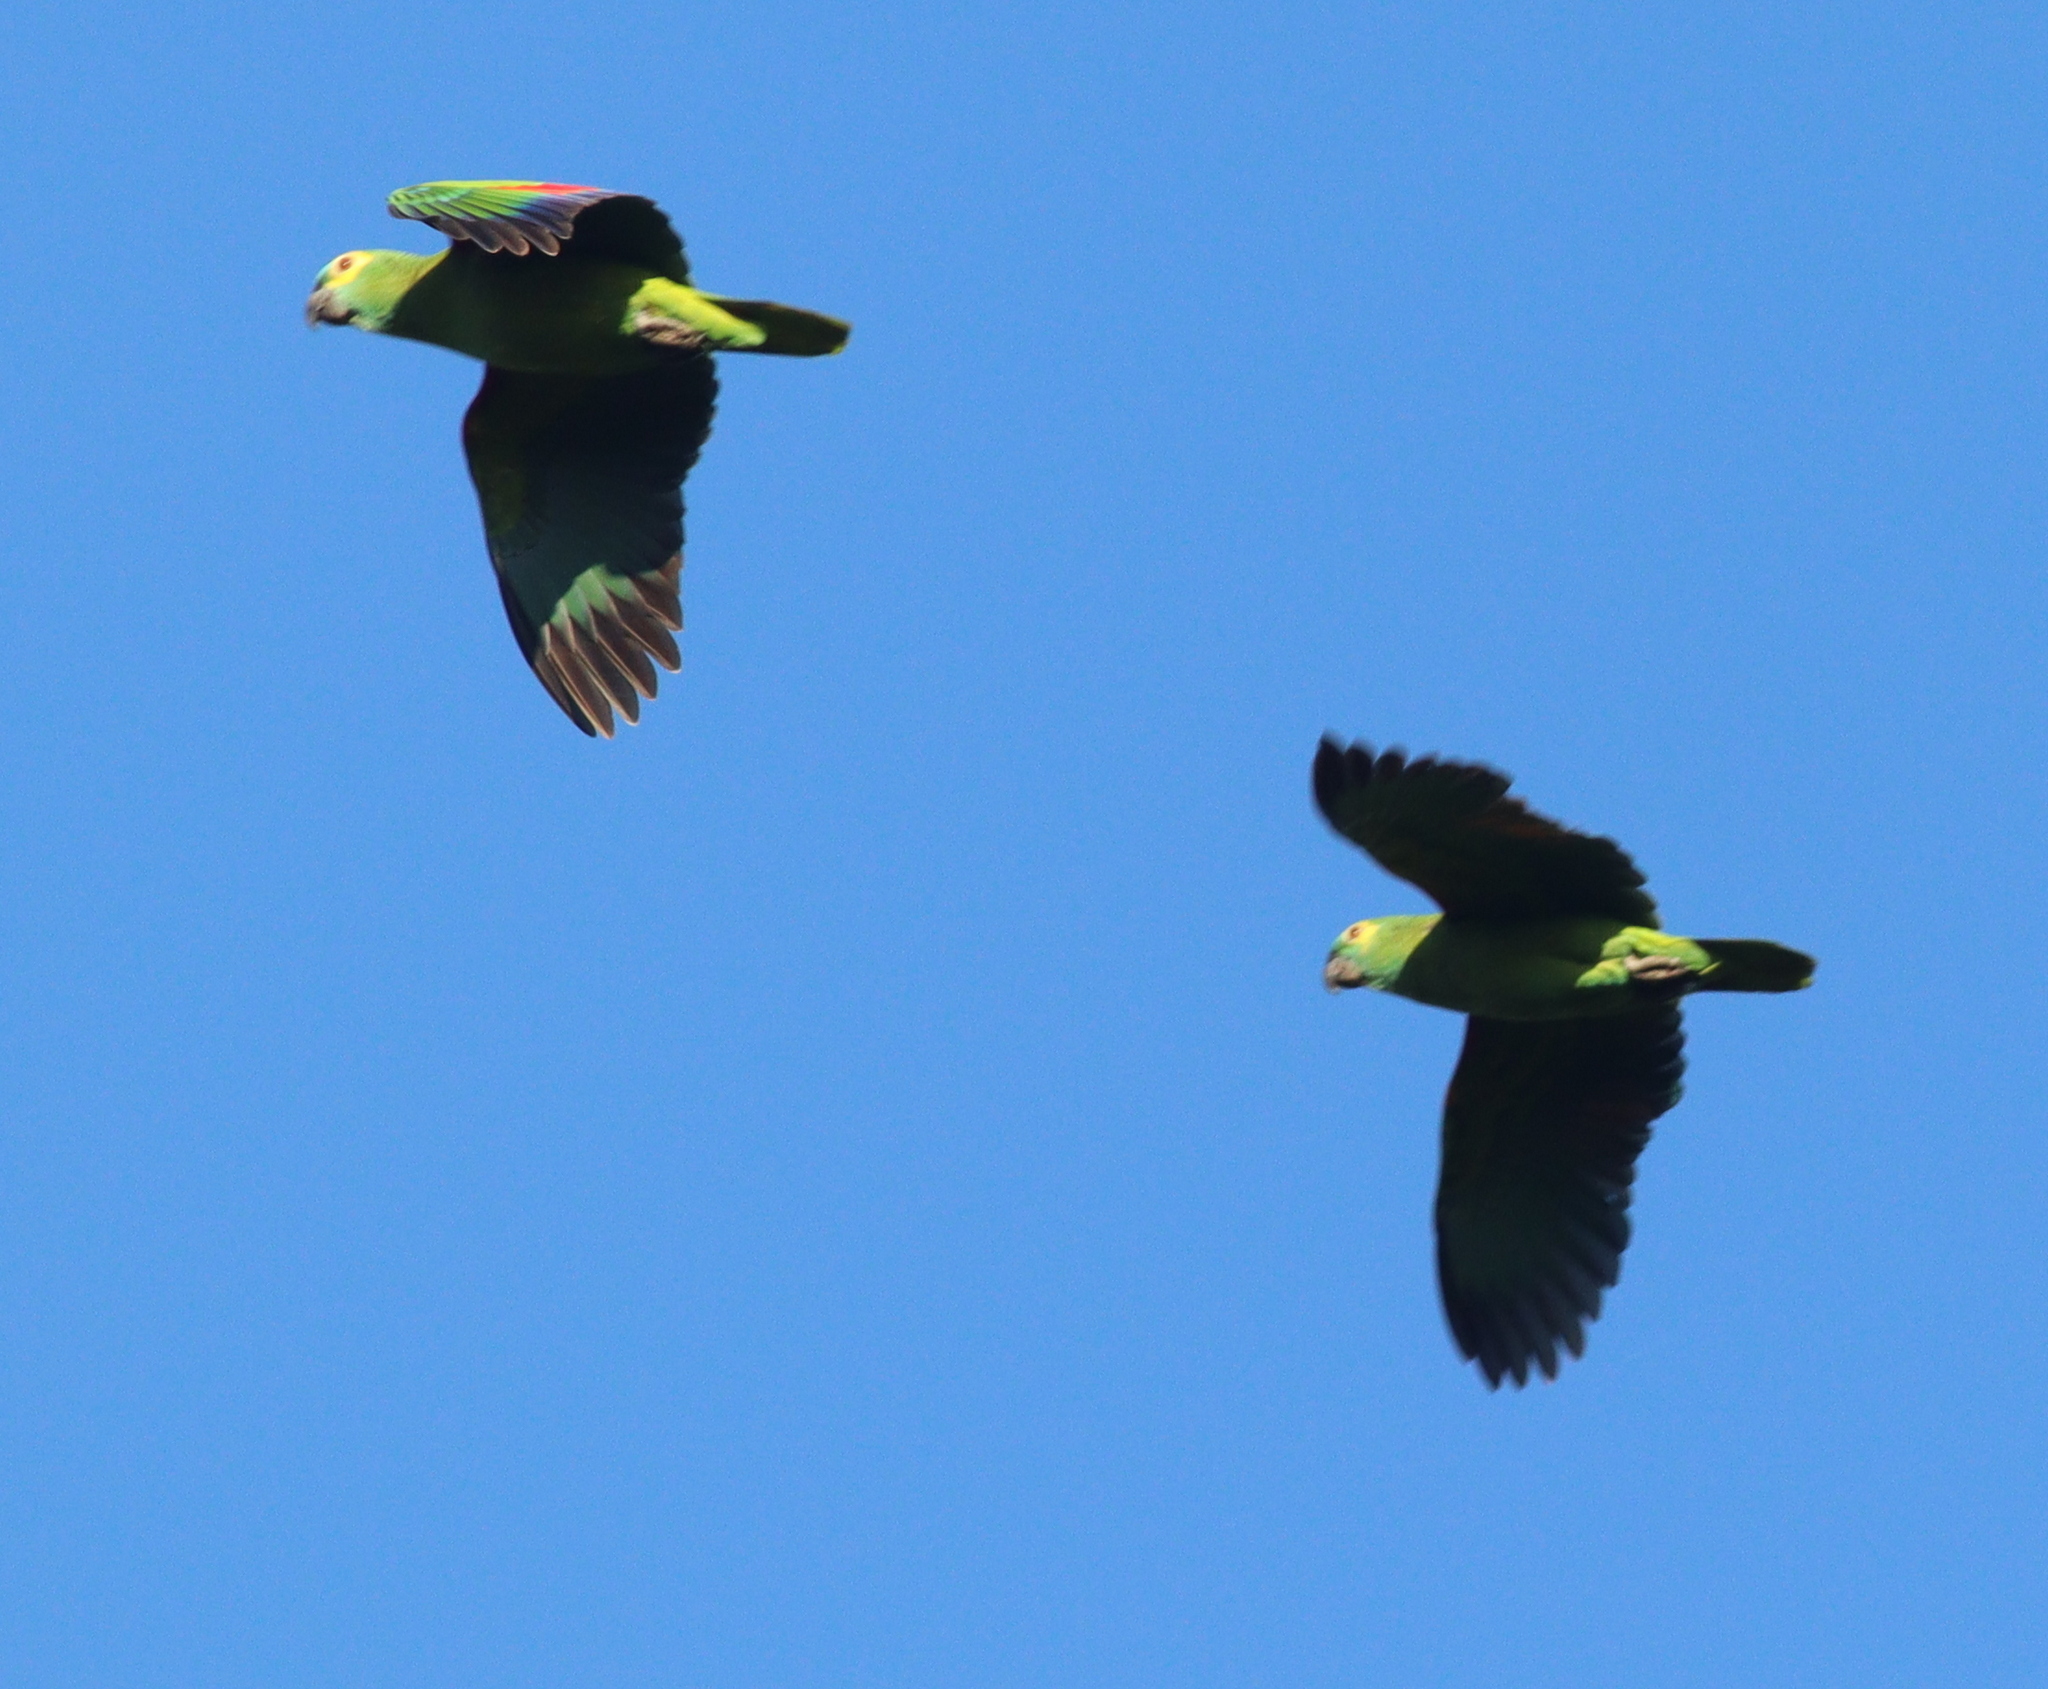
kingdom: Animalia
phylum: Chordata
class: Aves
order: Psittaciformes
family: Psittacidae
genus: Amazona
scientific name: Amazona aestiva
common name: Turquoise-fronted amazon
